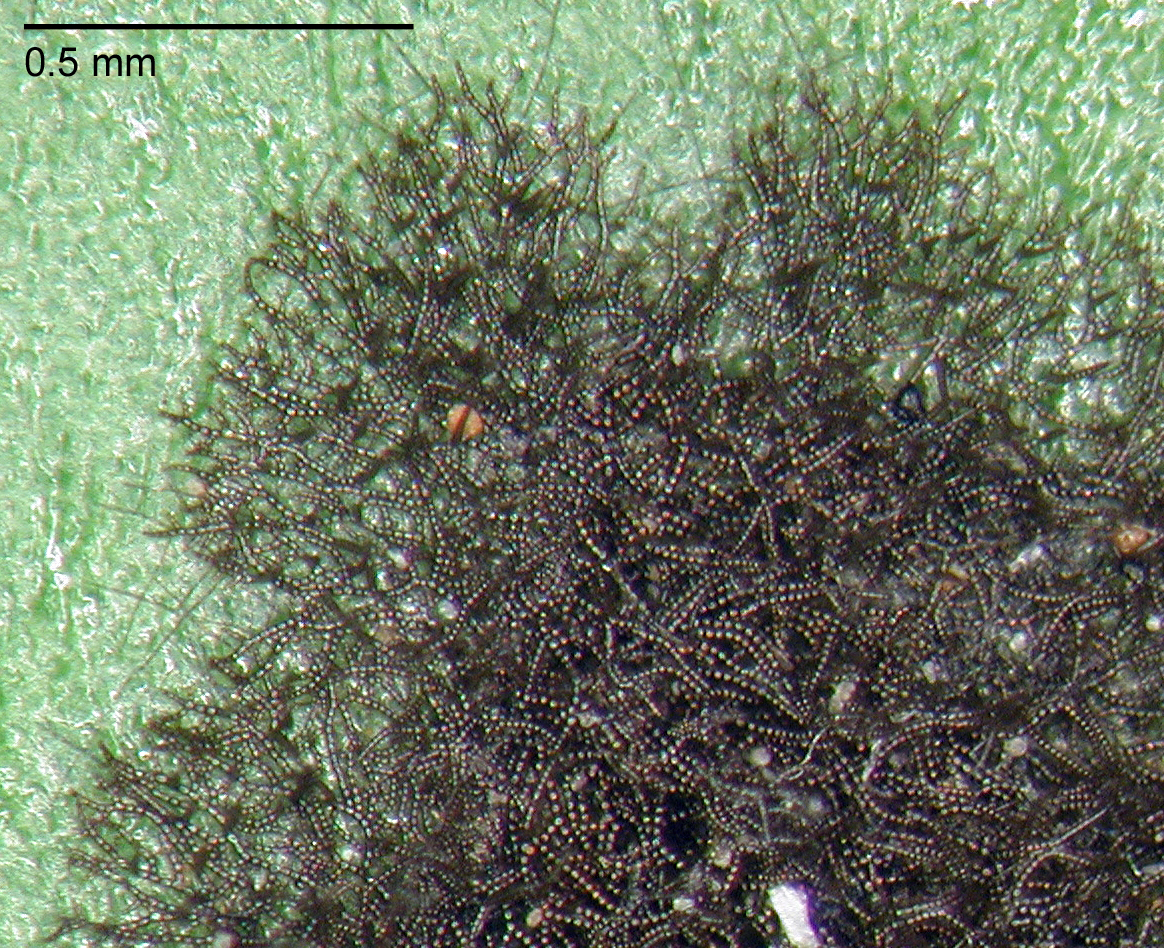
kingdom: Fungi
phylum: Ascomycota
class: Dothideomycetes
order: Capnodiales
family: Metacapnodiaceae
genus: Metacapnodium
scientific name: Metacapnodium dingleyae
